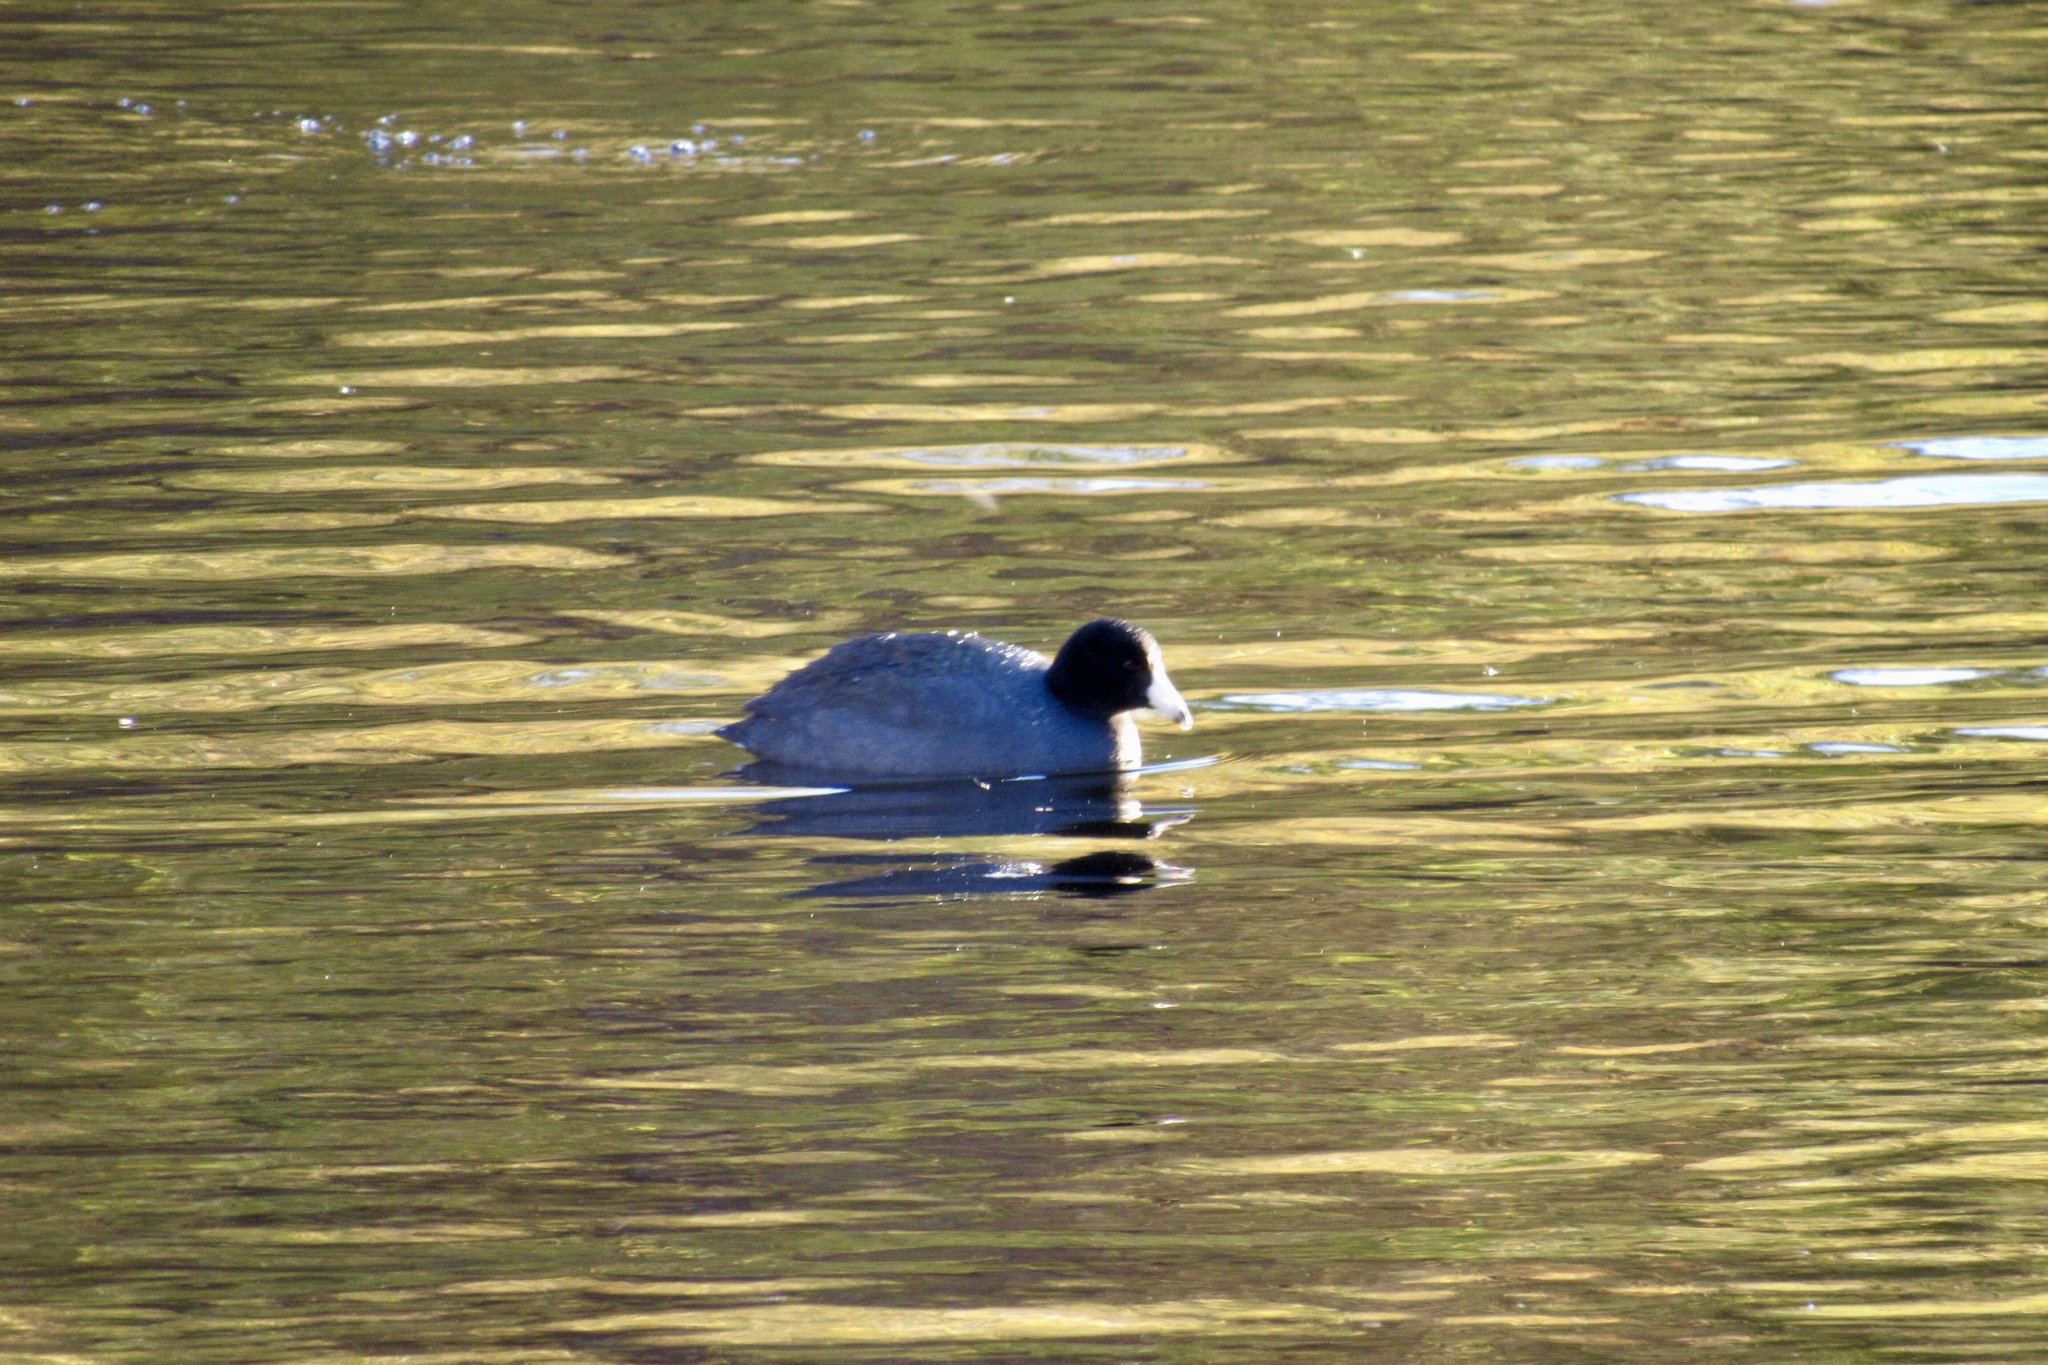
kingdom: Animalia
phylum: Chordata
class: Aves
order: Gruiformes
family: Rallidae
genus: Fulica
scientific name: Fulica americana
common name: American coot
